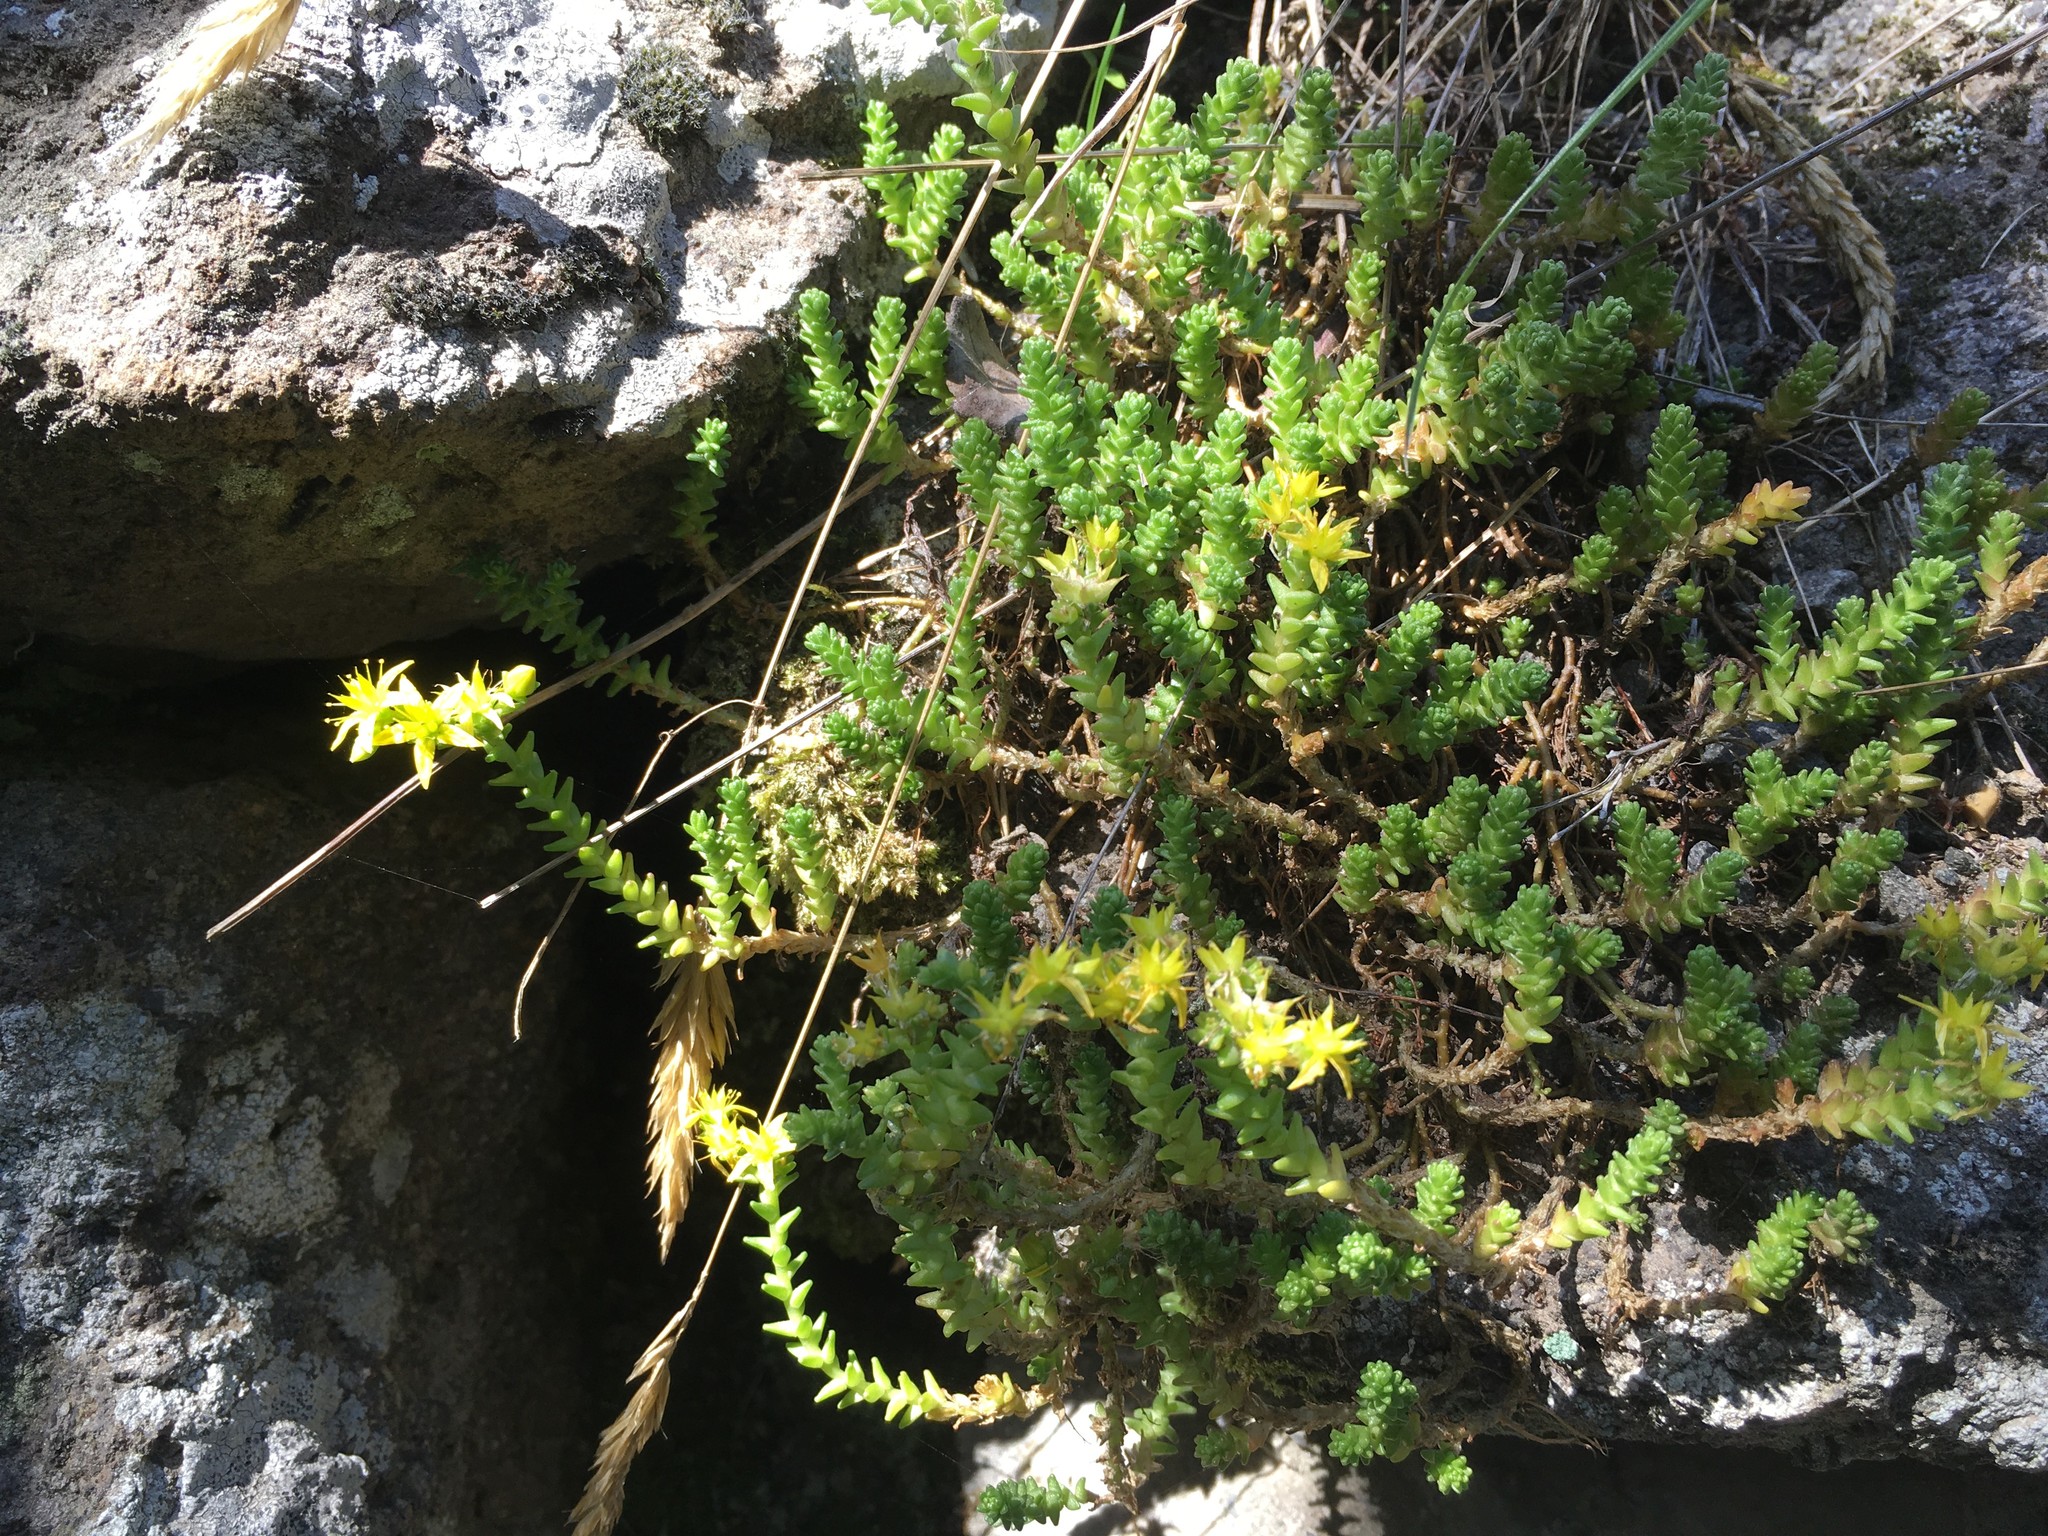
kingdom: Plantae
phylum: Tracheophyta
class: Magnoliopsida
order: Saxifragales
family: Crassulaceae
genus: Sedum
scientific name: Sedum acre
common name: Biting stonecrop
